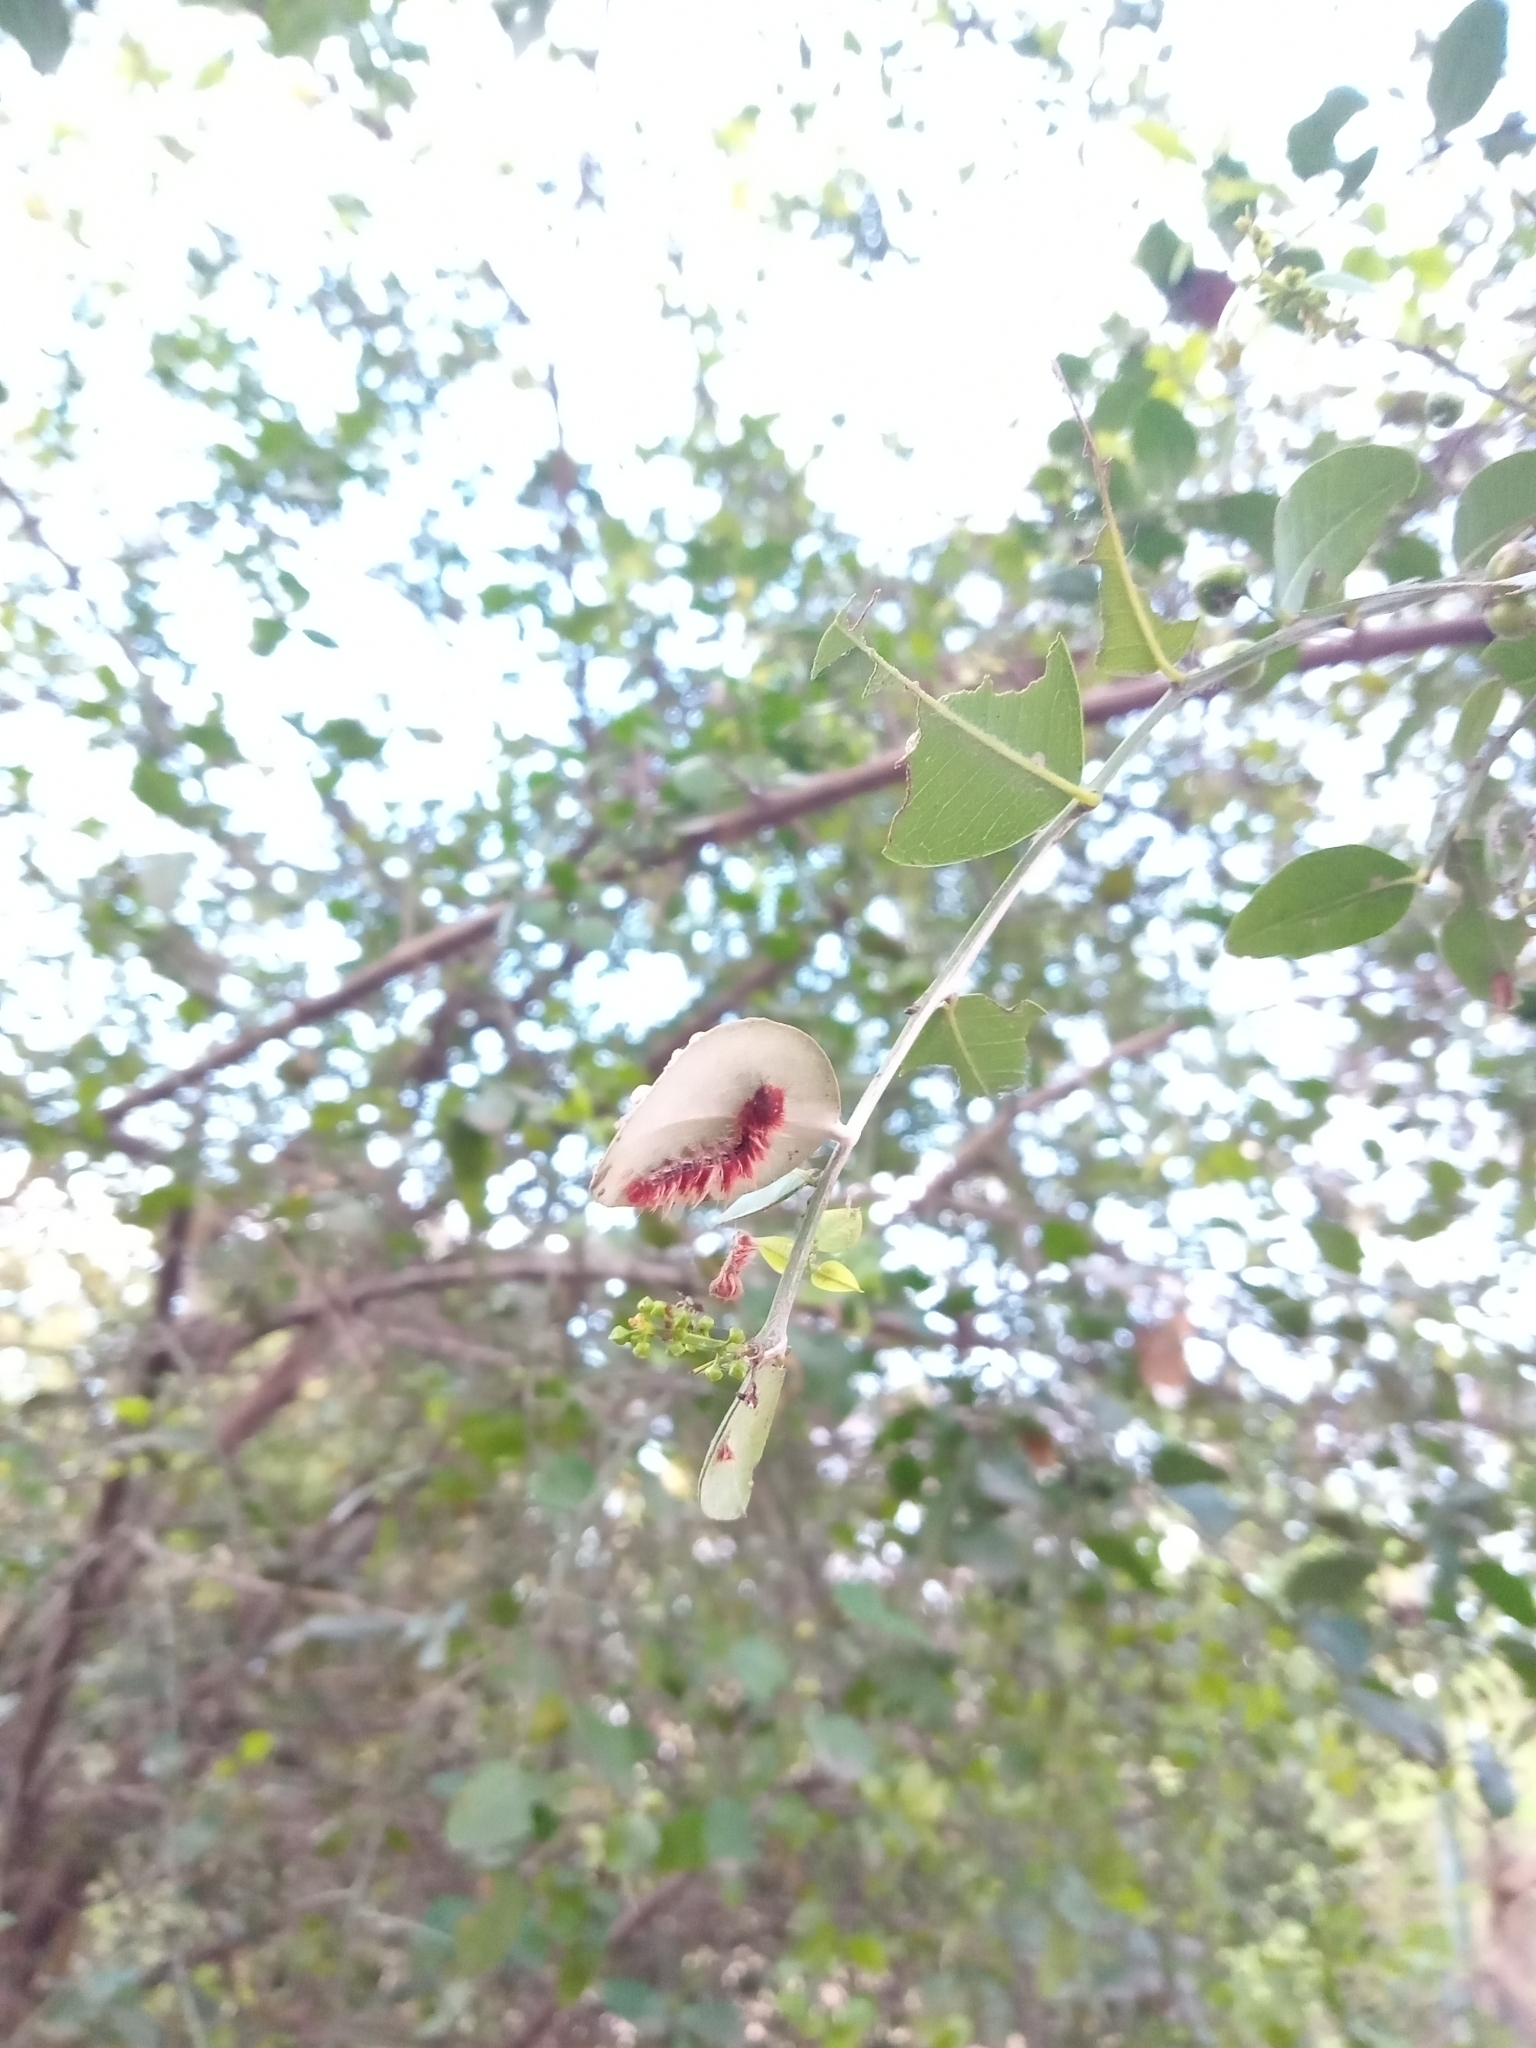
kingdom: Animalia
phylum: Arthropoda
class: Insecta
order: Lepidoptera
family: Nymphalidae
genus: Morpho
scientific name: Morpho epistrophus
